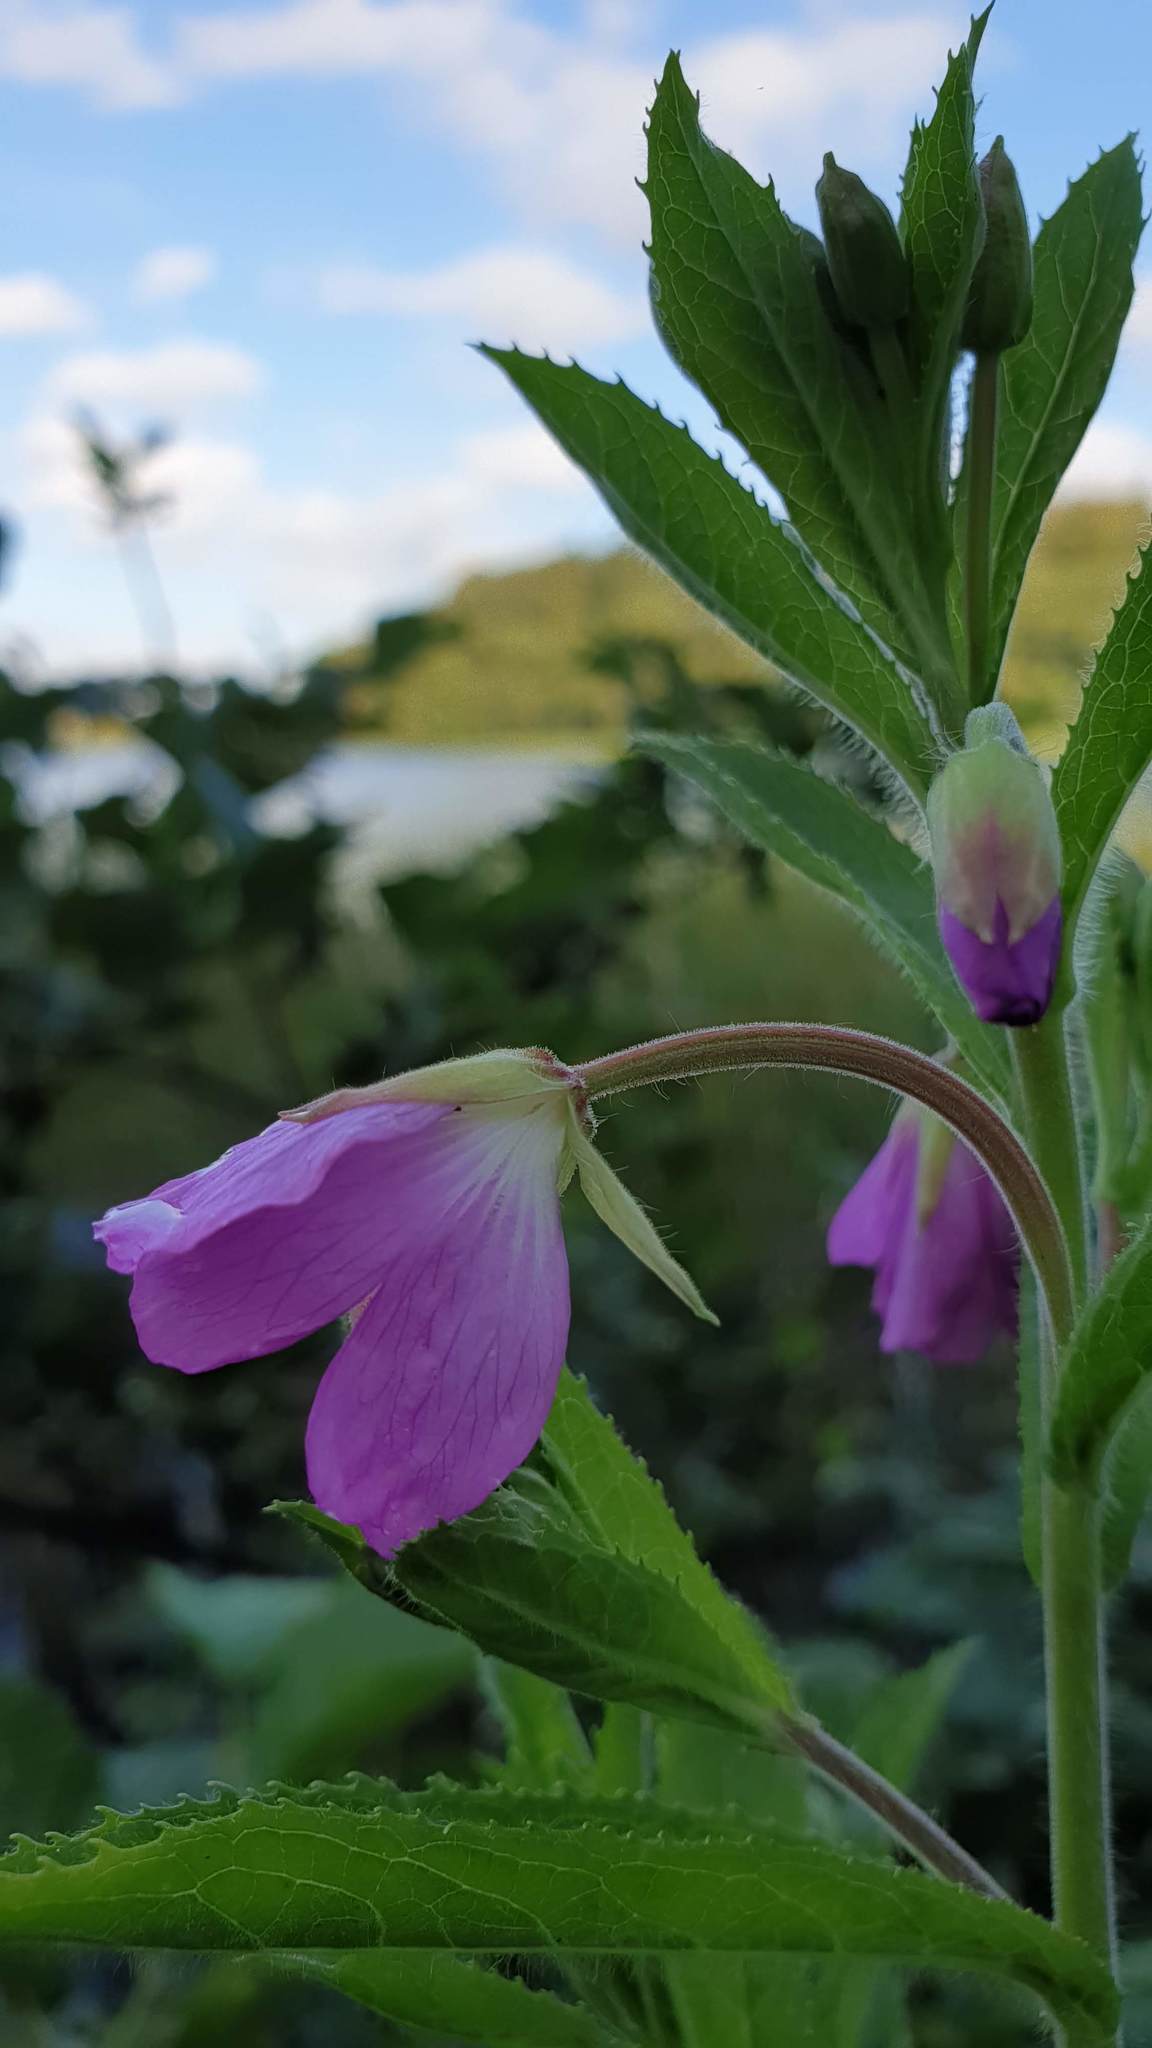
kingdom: Plantae
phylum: Tracheophyta
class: Magnoliopsida
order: Myrtales
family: Onagraceae
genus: Epilobium
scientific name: Epilobium hirsutum
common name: Great willowherb
